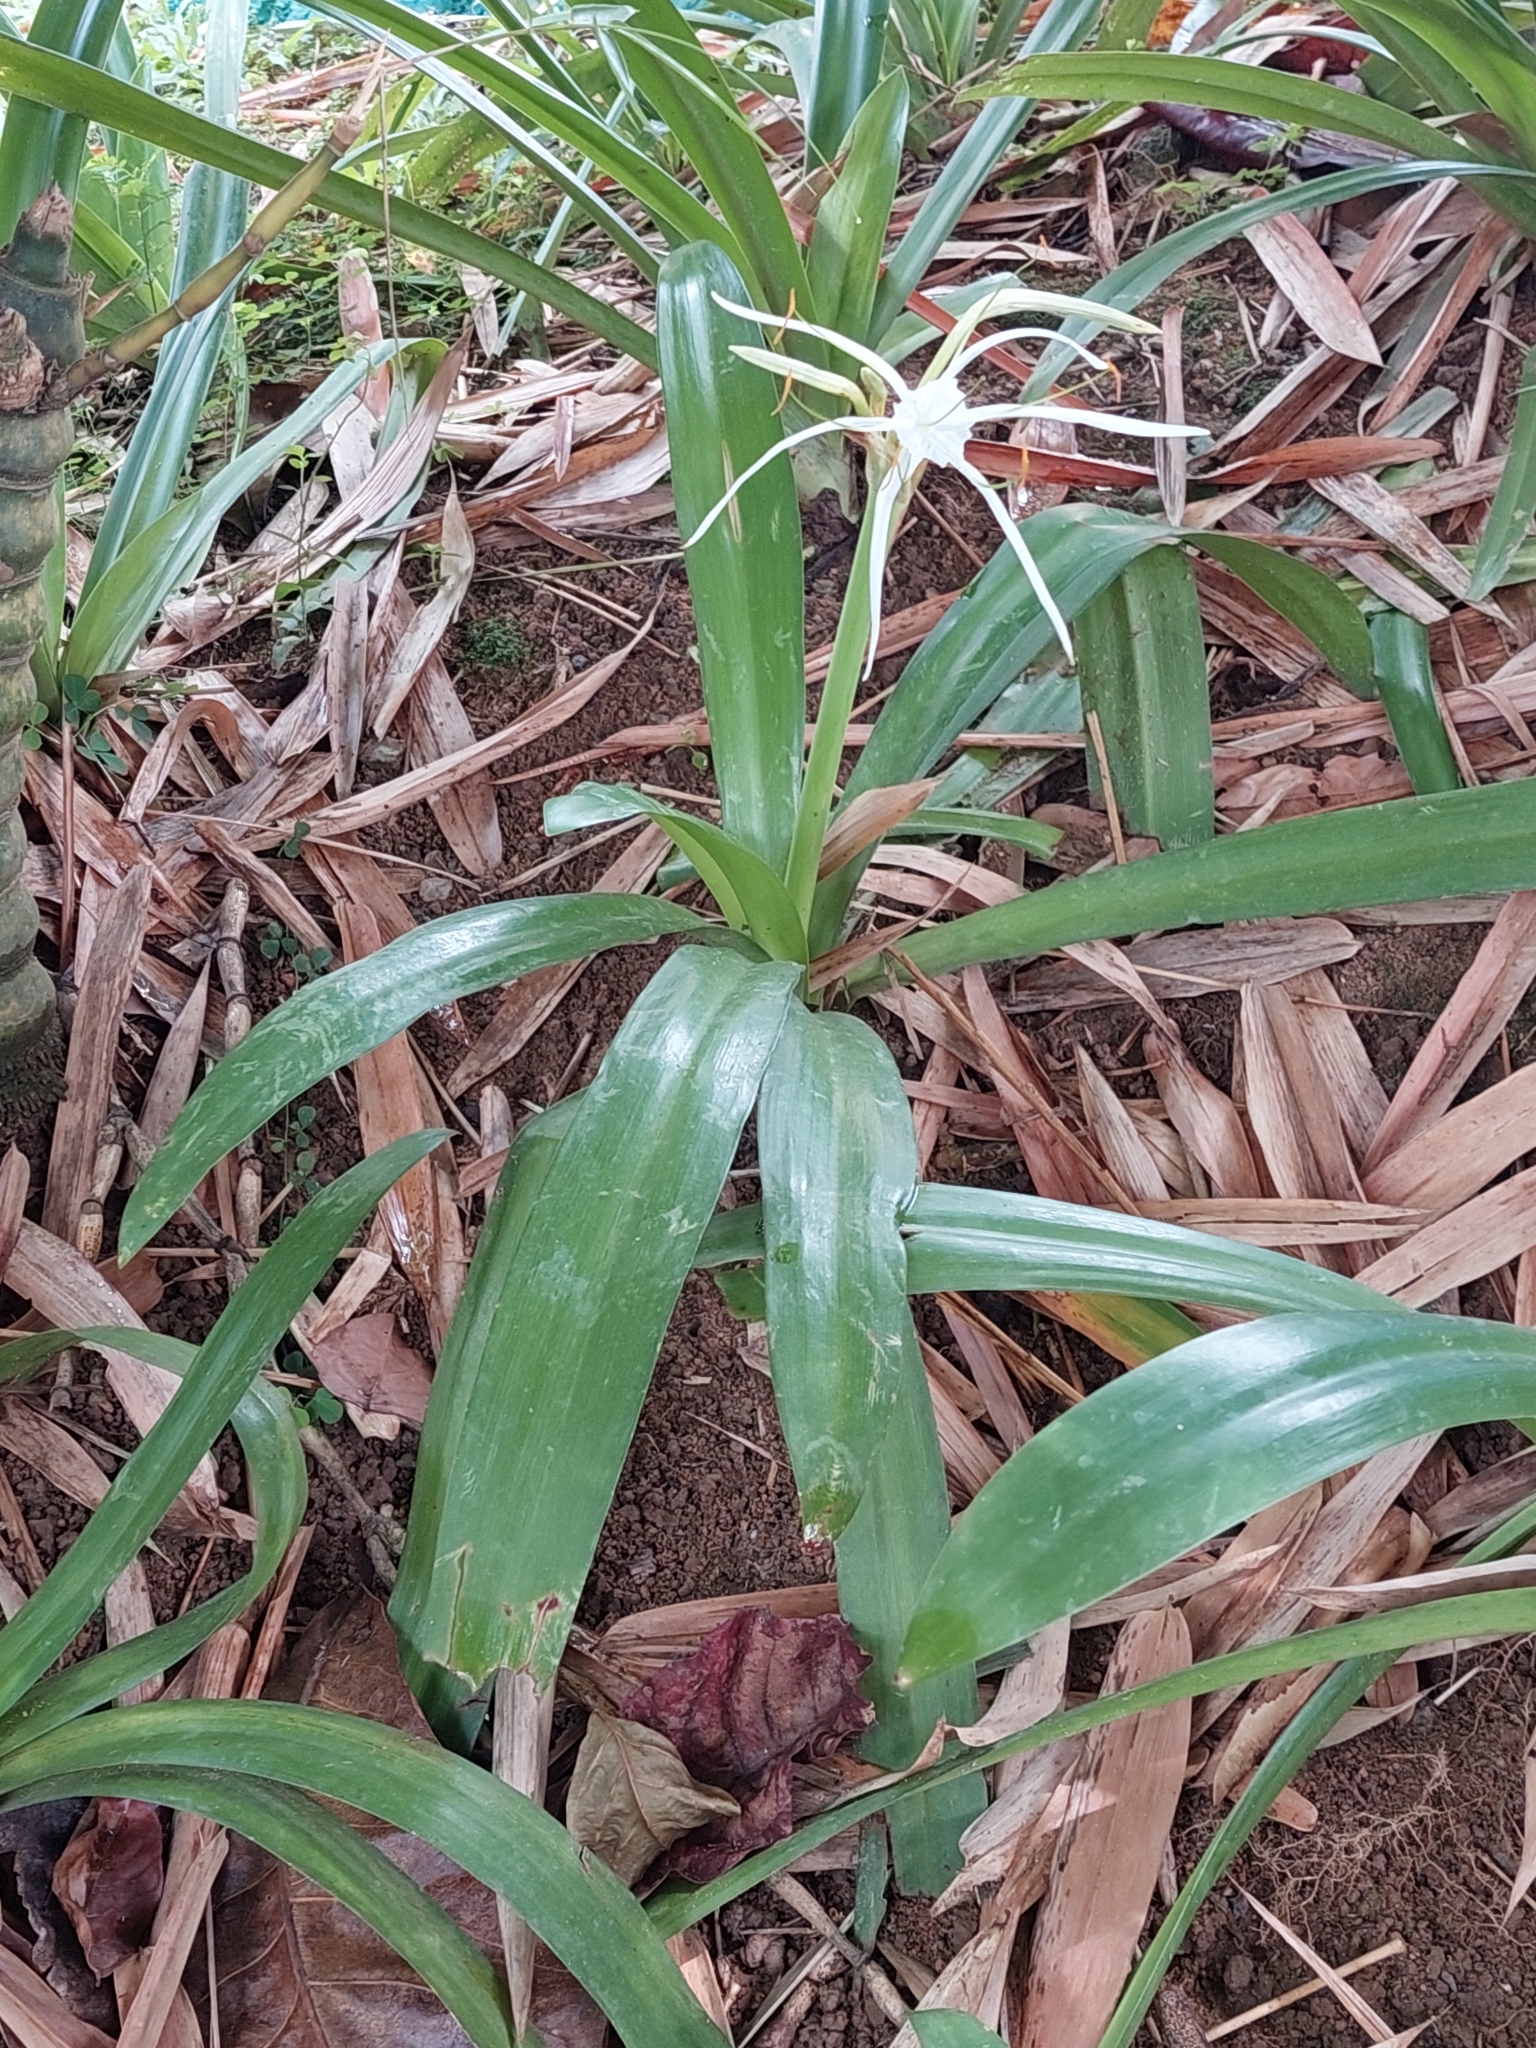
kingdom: Plantae
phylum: Tracheophyta
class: Liliopsida
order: Asparagales
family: Amaryllidaceae
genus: Hymenocallis
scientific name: Hymenocallis speciosa
